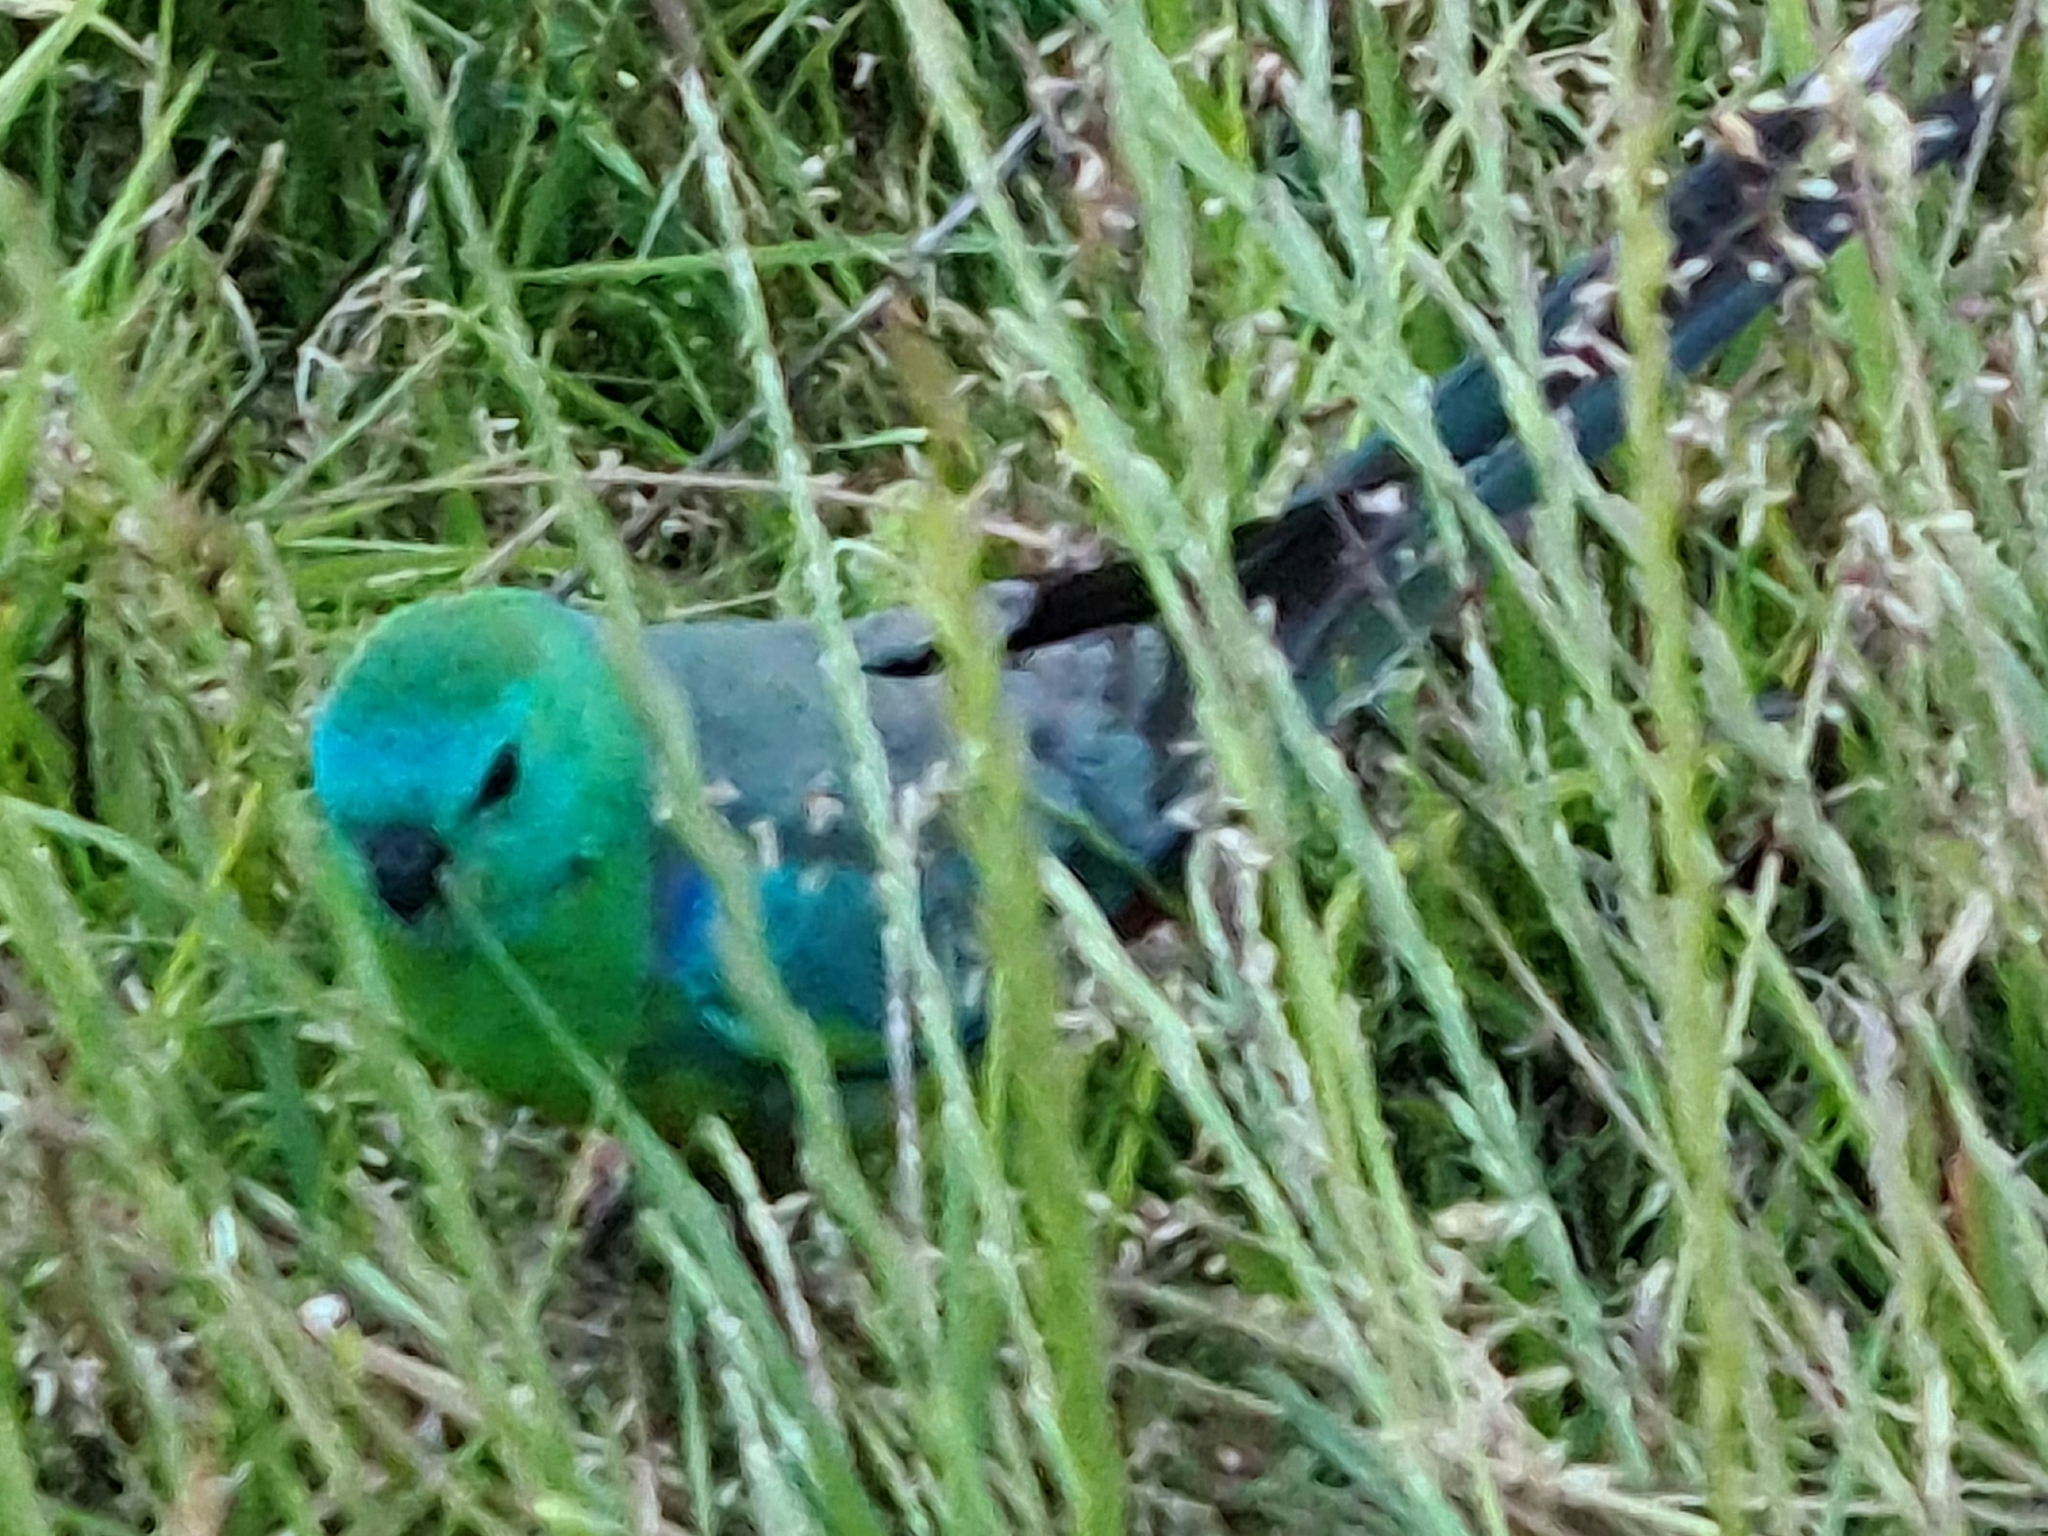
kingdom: Animalia
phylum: Chordata
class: Aves
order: Psittaciformes
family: Psittacidae
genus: Psephotus
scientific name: Psephotus haematonotus
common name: Red-rumped parrot
